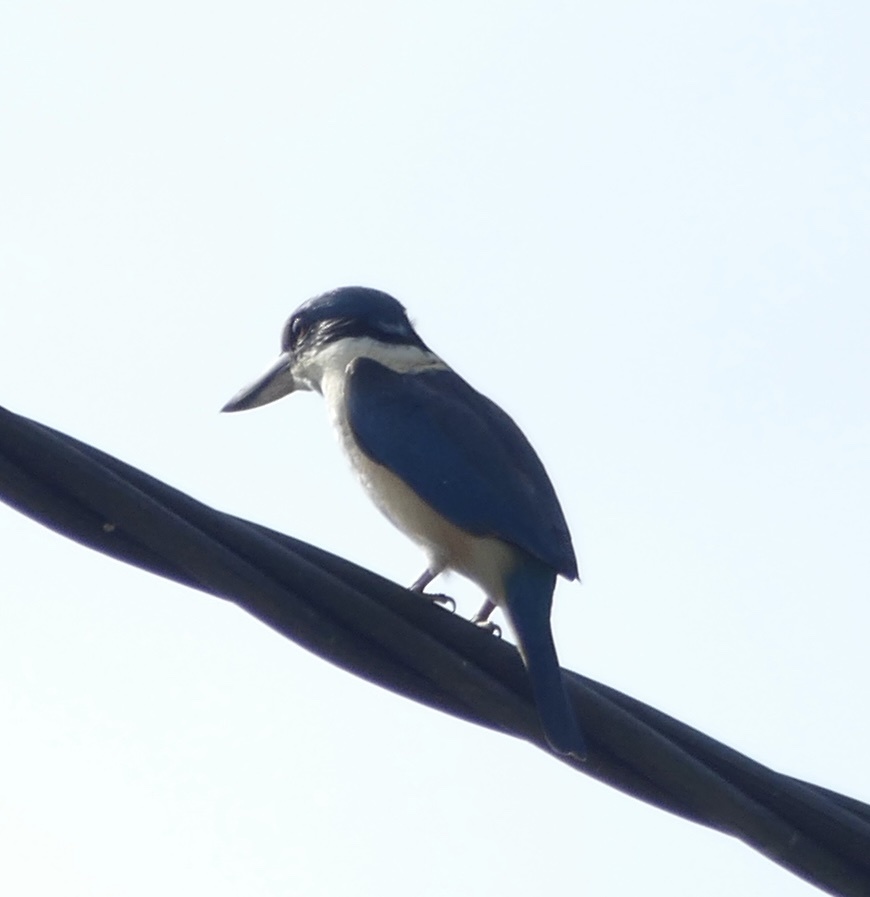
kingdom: Animalia
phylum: Chordata
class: Aves
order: Coraciiformes
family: Alcedinidae
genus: Todiramphus
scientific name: Todiramphus sanctus
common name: Sacred kingfisher
